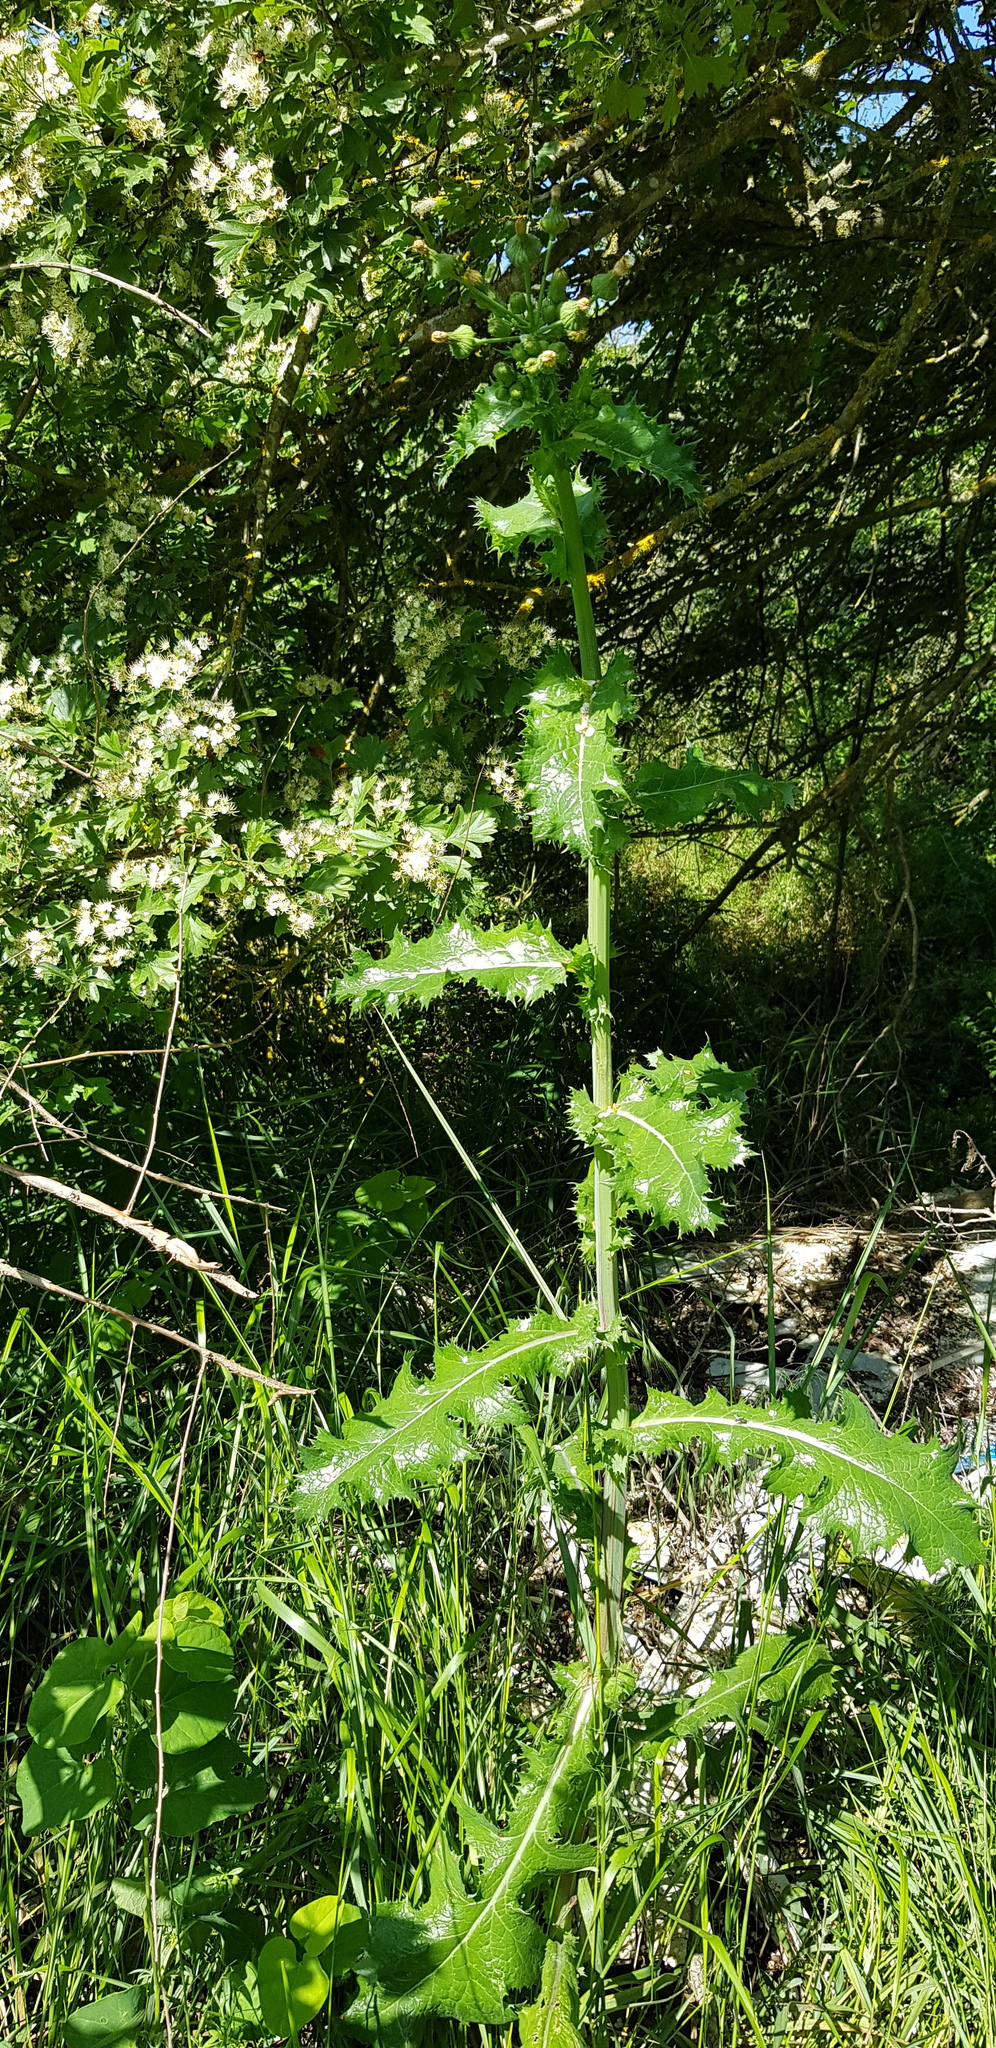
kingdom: Plantae
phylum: Tracheophyta
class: Magnoliopsida
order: Asterales
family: Asteraceae
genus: Sonchus
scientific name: Sonchus asper
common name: Prickly sow-thistle
